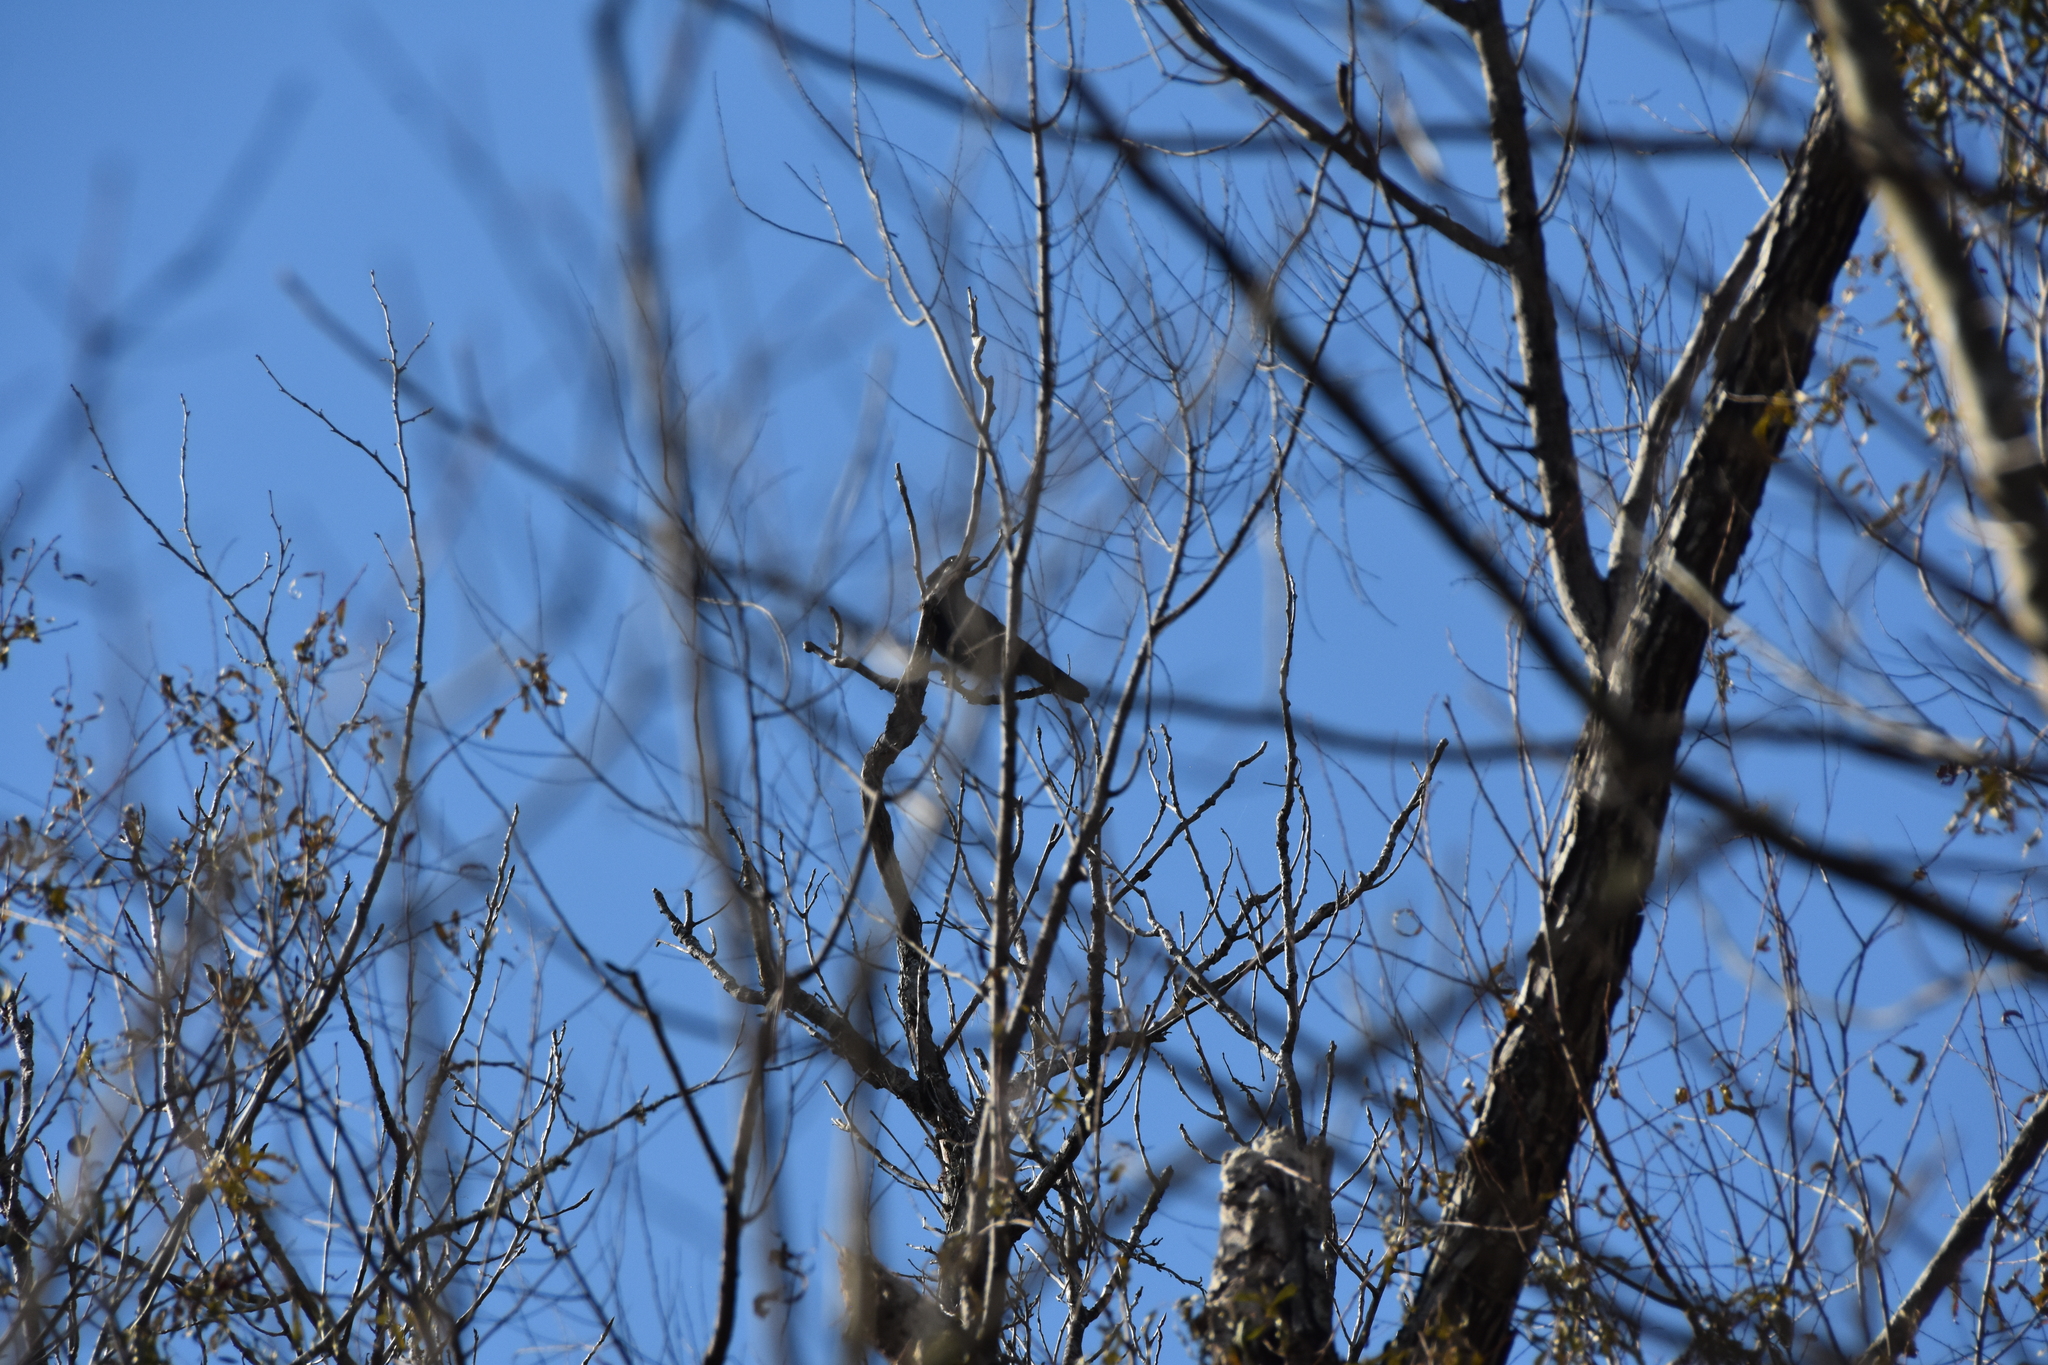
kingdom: Animalia
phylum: Chordata
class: Aves
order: Passeriformes
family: Corvidae
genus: Corvus
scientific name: Corvus
